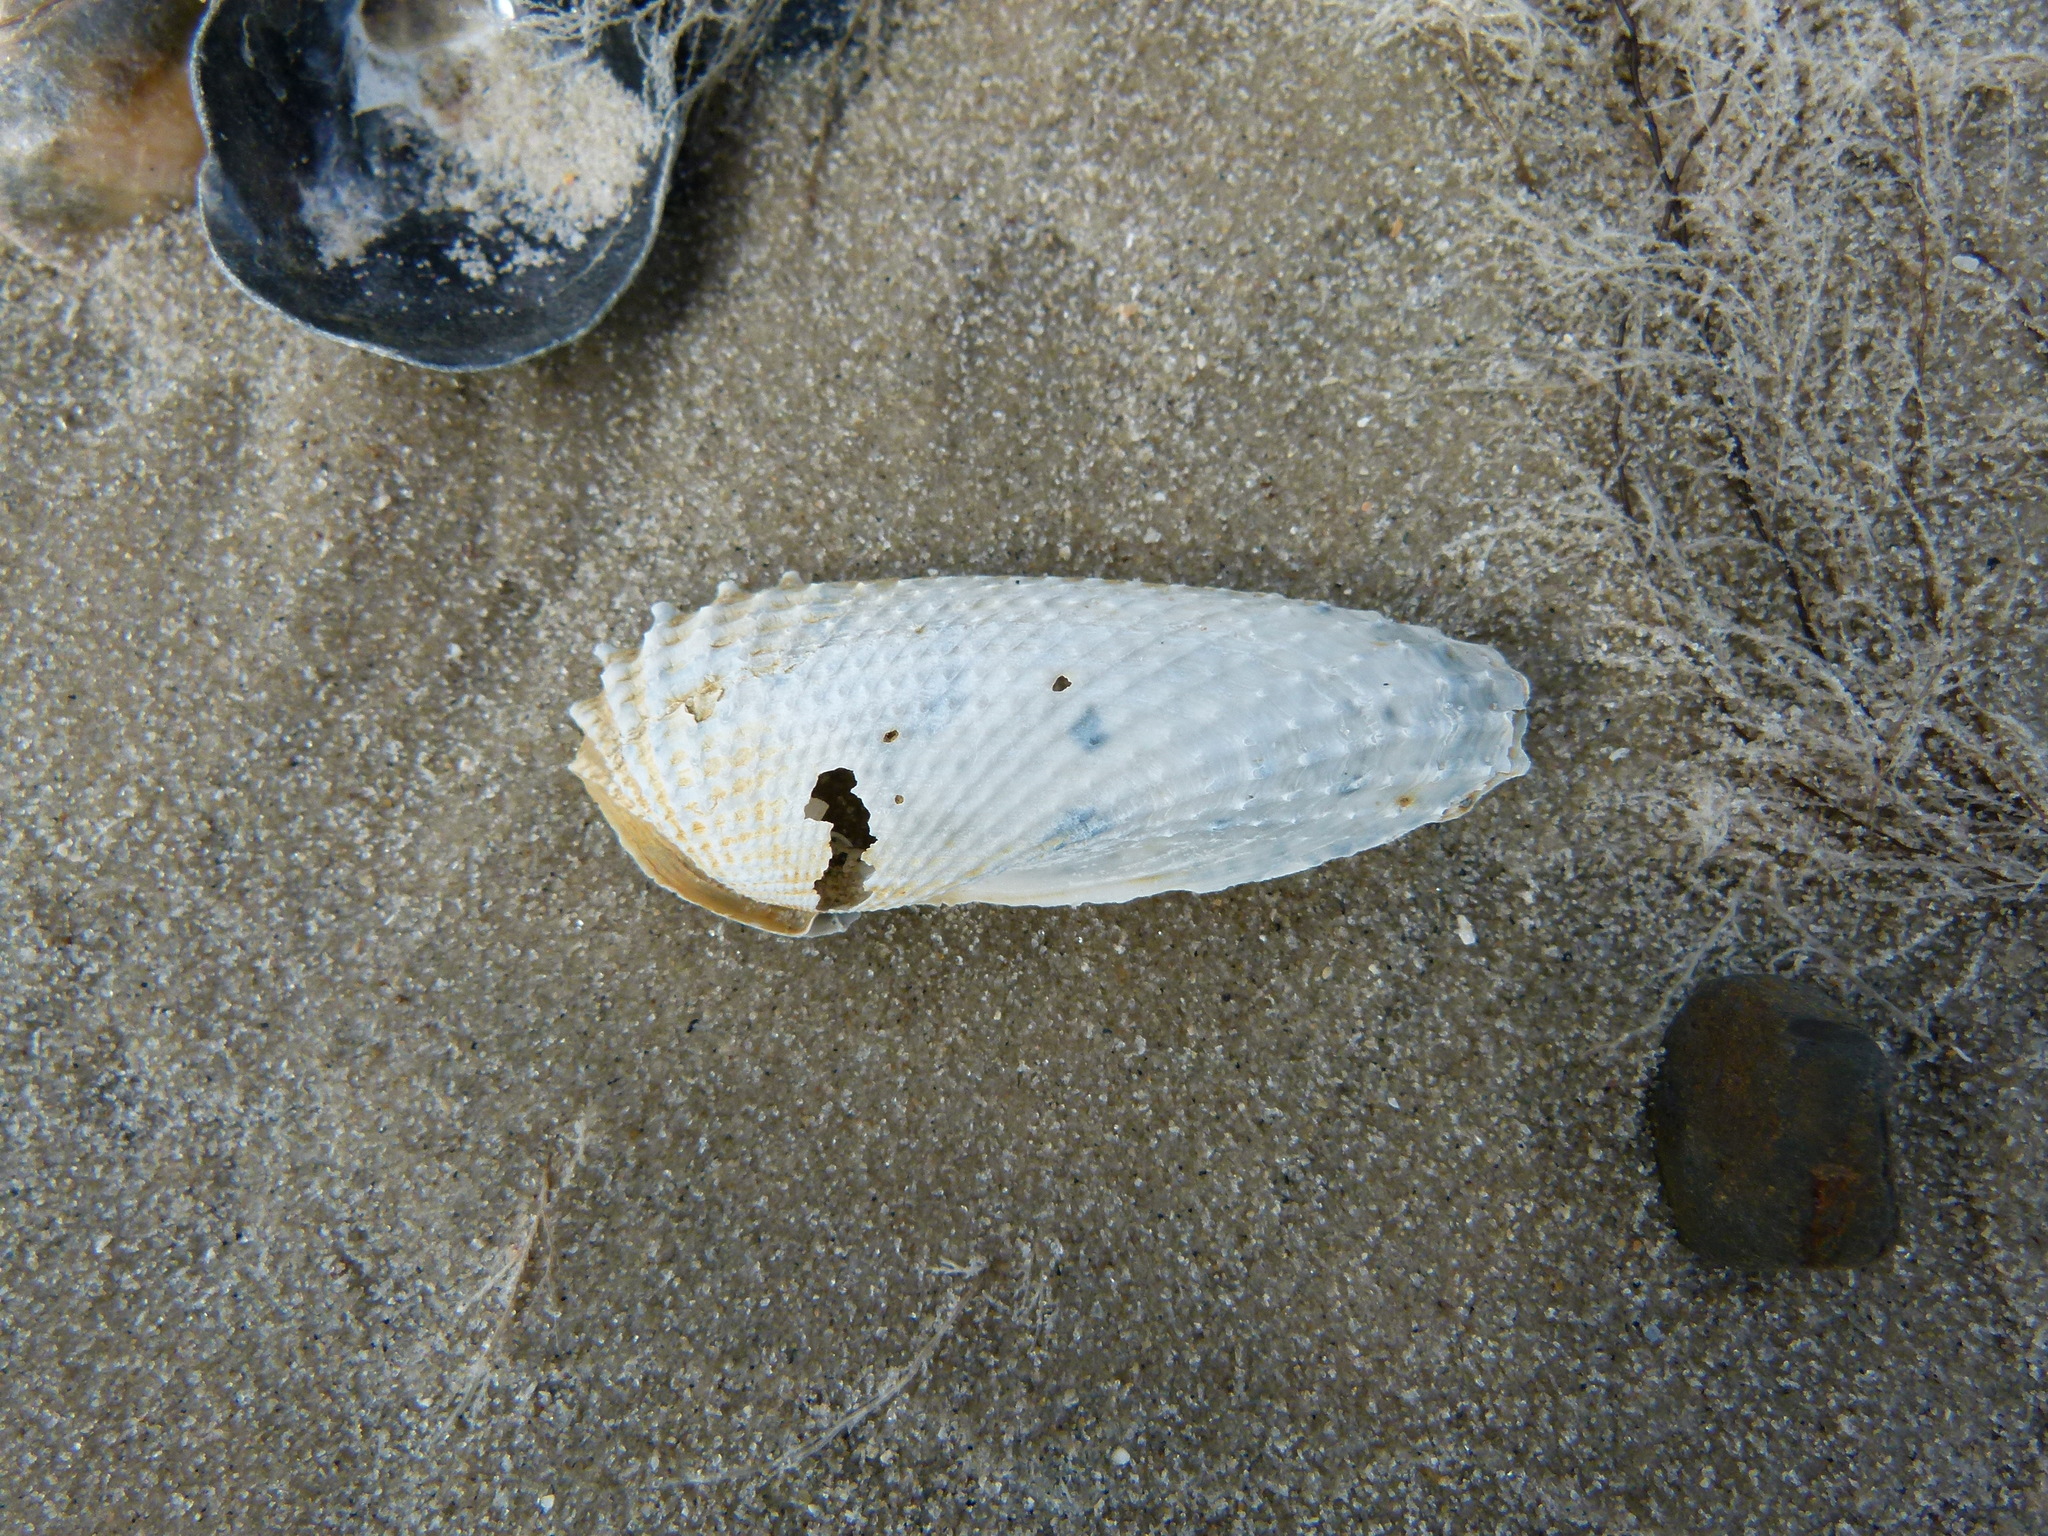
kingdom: Animalia
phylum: Mollusca
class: Bivalvia
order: Myida
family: Pholadidae
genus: Cyrtopleura
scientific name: Cyrtopleura costata
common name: Angel wing
